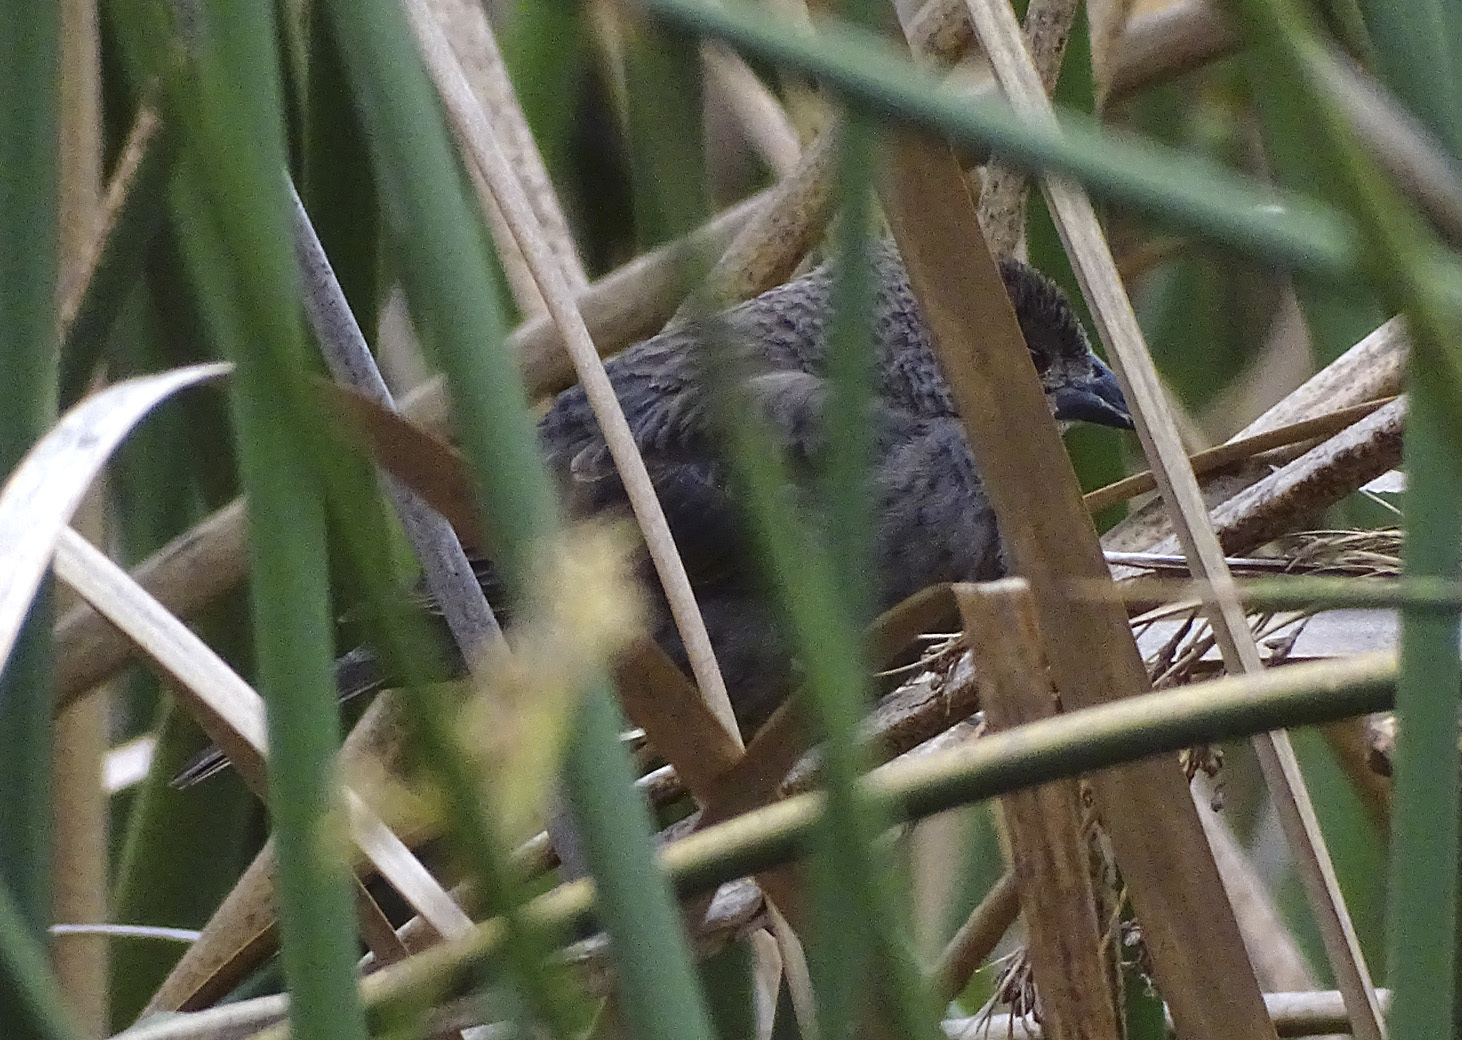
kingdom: Animalia
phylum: Chordata
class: Aves
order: Passeriformes
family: Icteridae
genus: Molothrus
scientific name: Molothrus aeneus
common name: Bronzed cowbird
